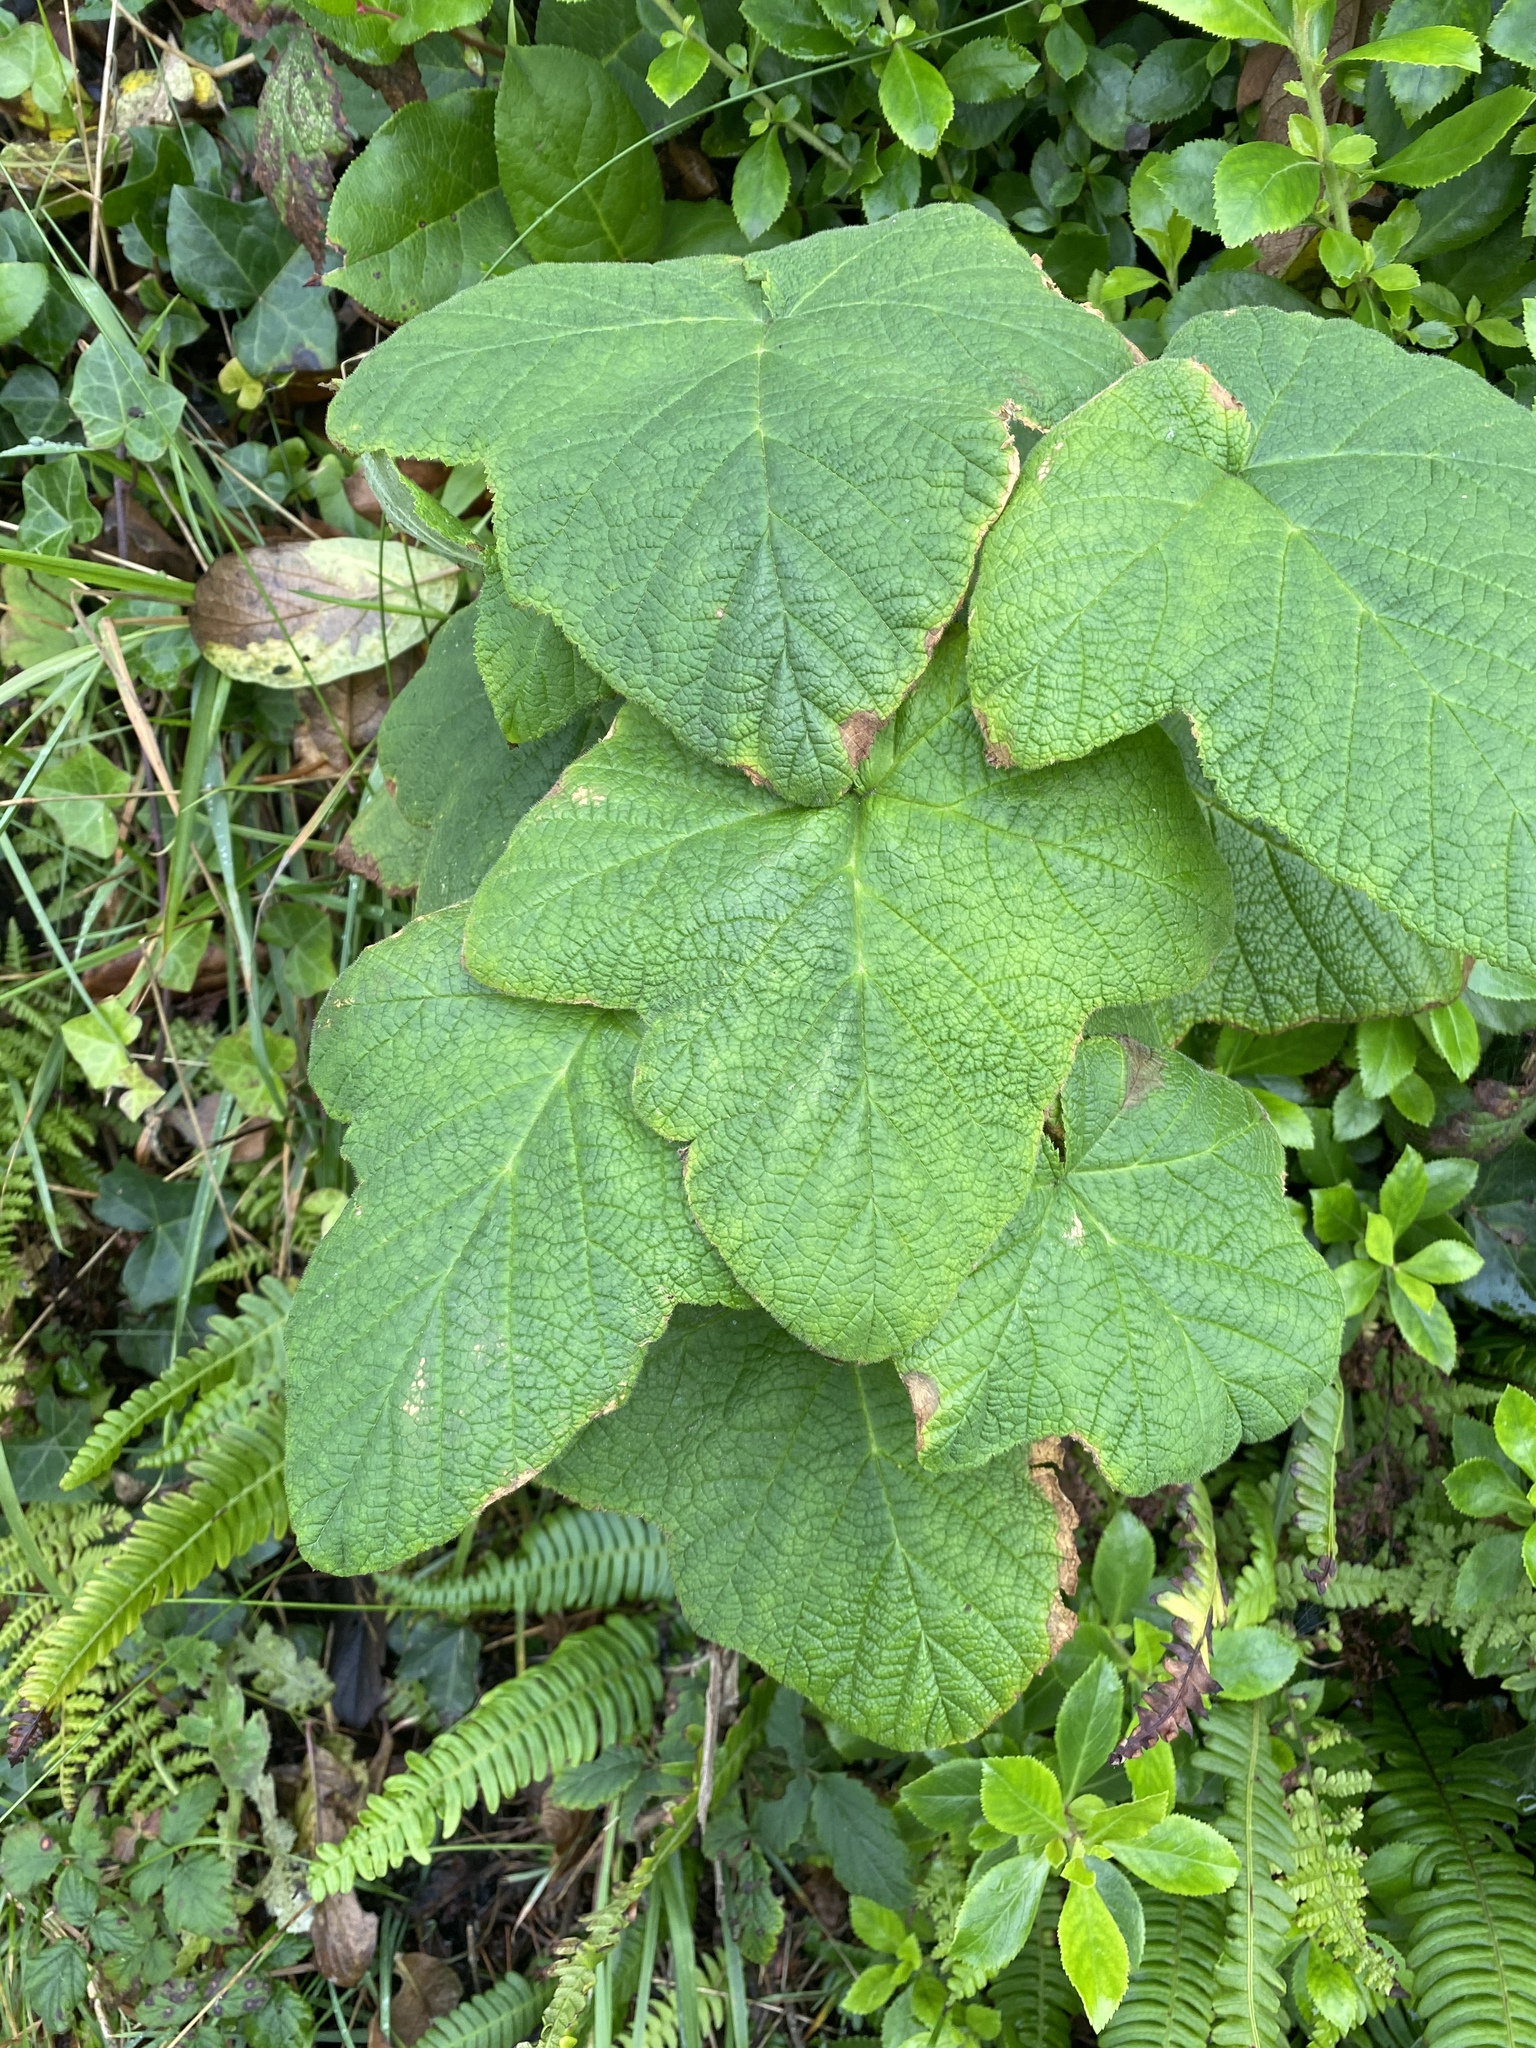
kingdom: Plantae
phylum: Tracheophyta
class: Magnoliopsida
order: Rosales
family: Rosaceae
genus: Rubus
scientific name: Rubus parviflorus
